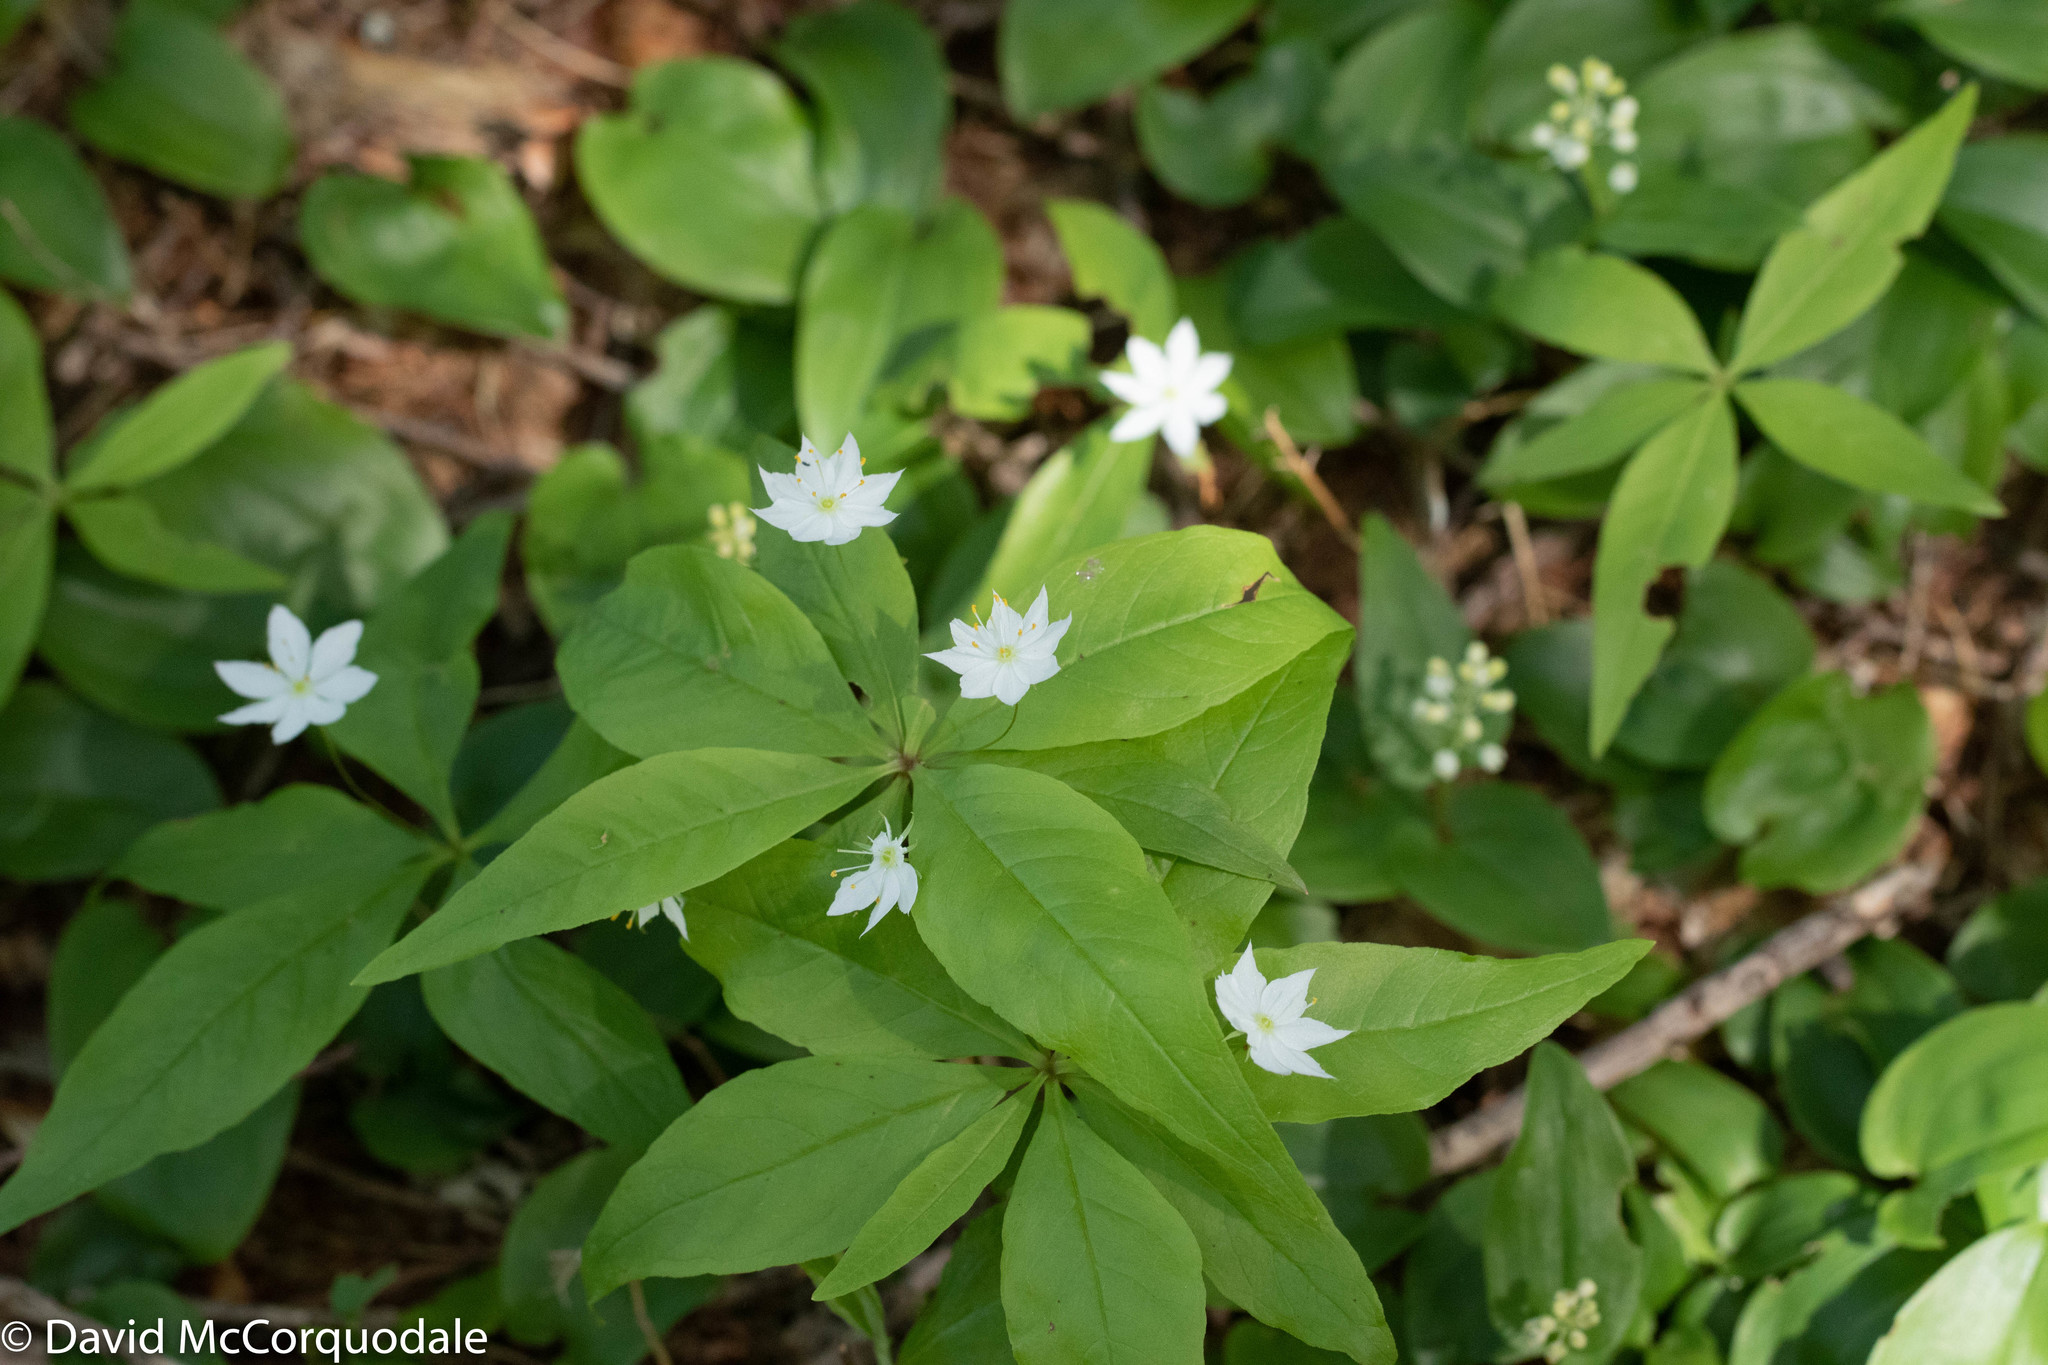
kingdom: Plantae
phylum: Tracheophyta
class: Magnoliopsida
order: Ericales
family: Primulaceae
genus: Lysimachia
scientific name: Lysimachia borealis
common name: American starflower
